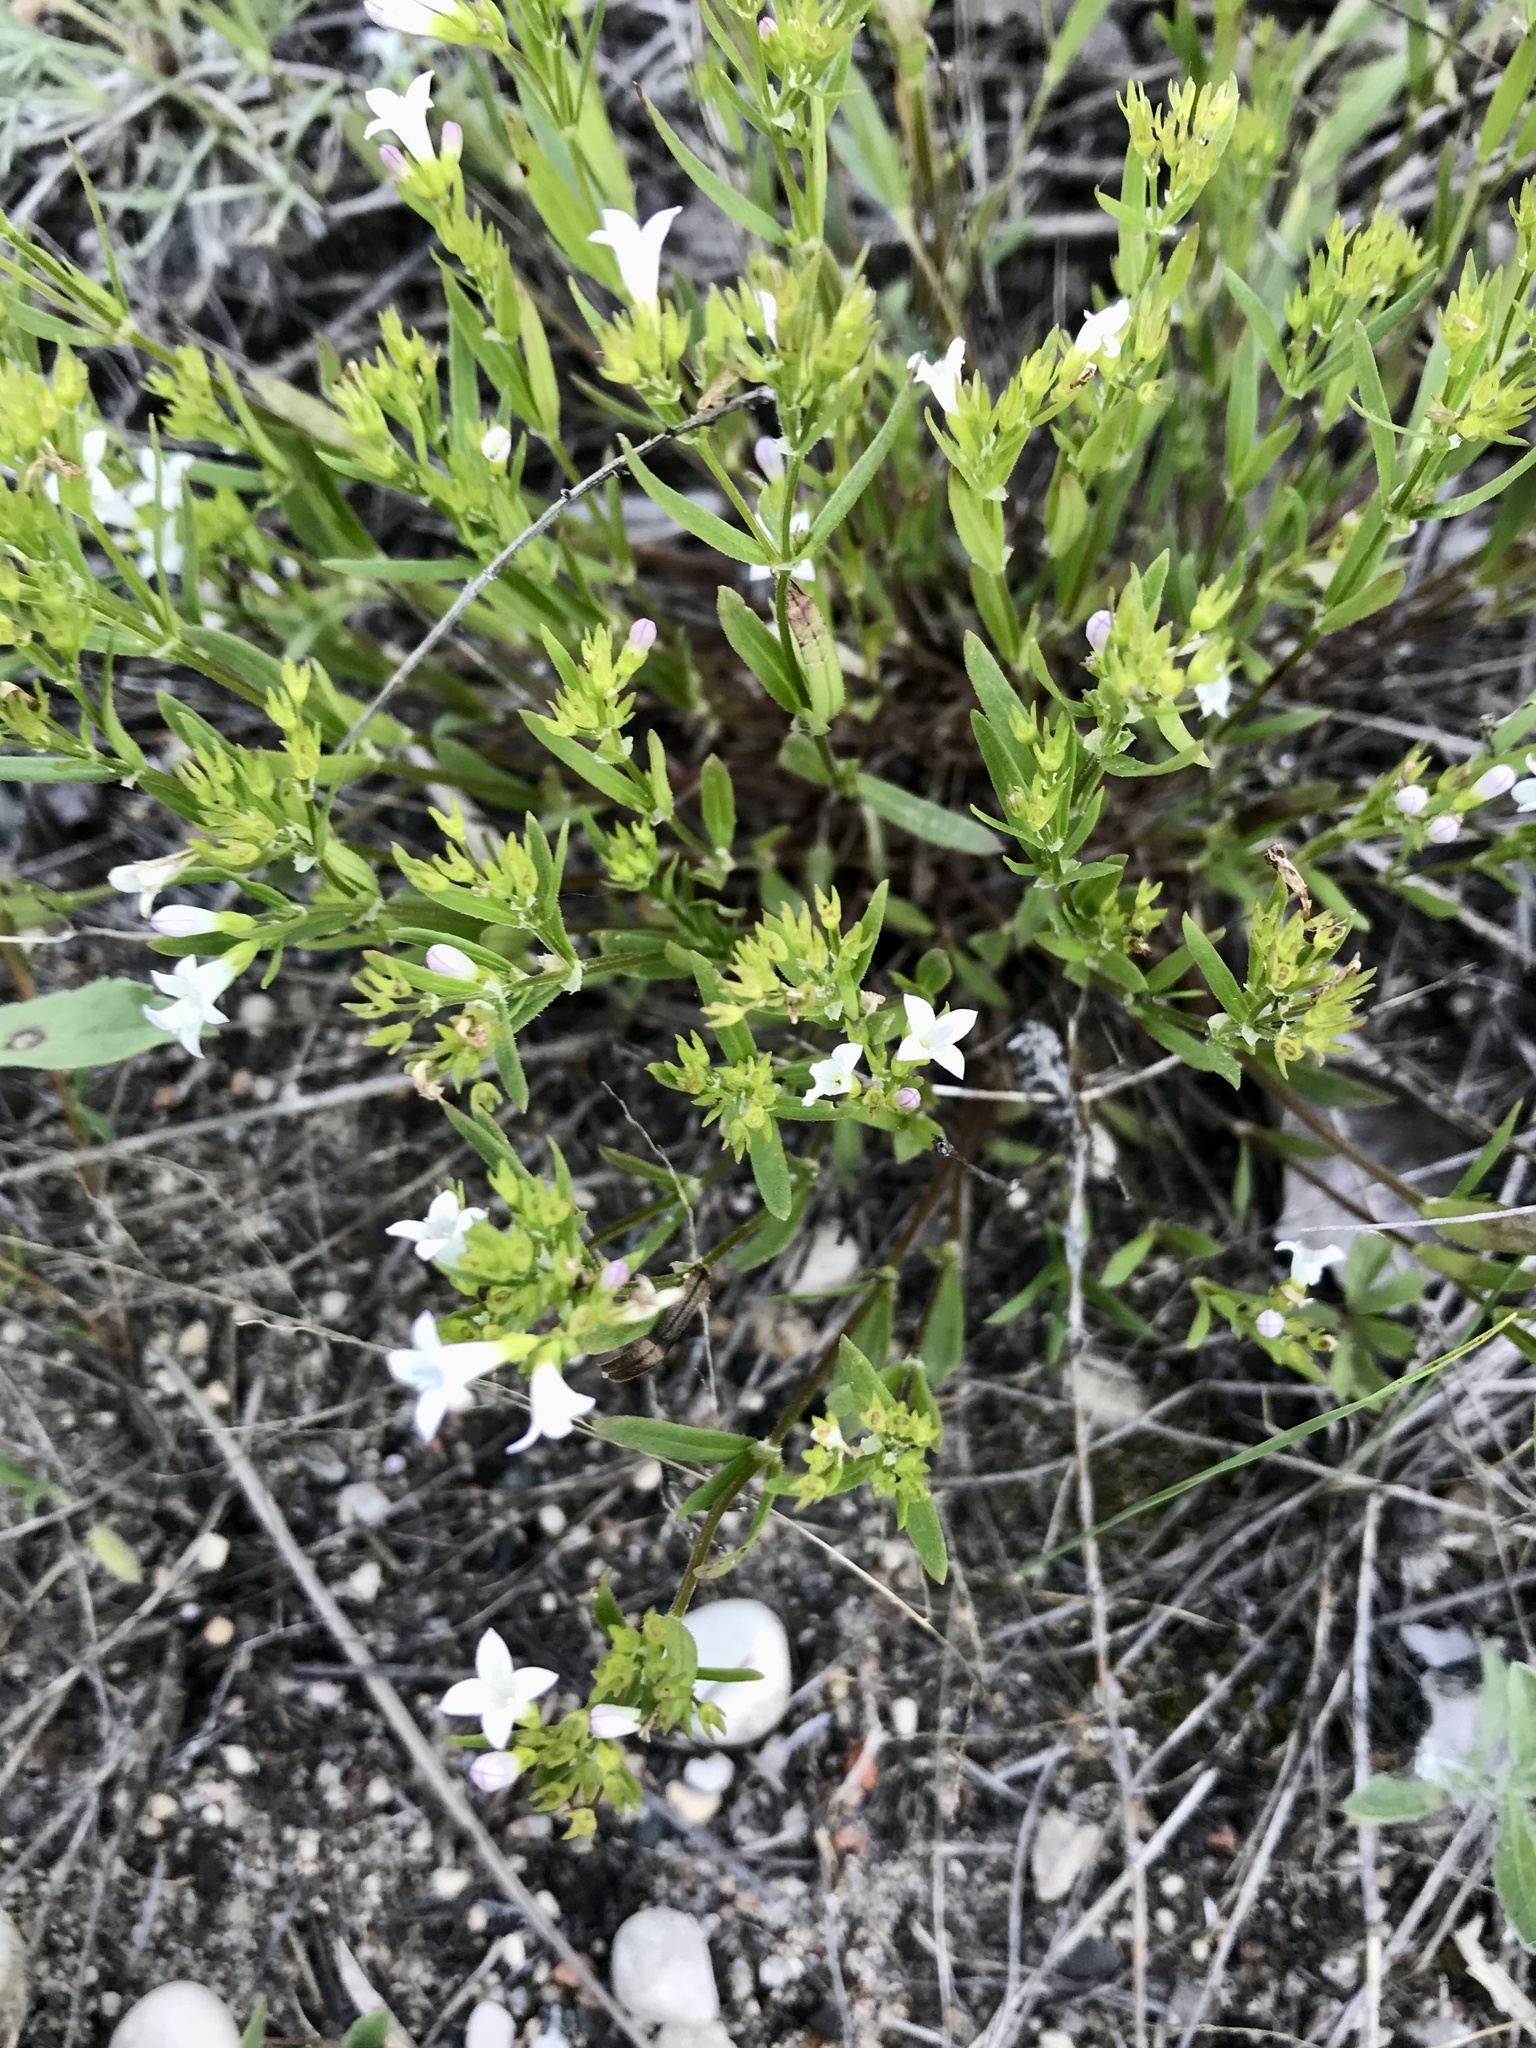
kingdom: Plantae
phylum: Tracheophyta
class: Magnoliopsida
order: Gentianales
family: Rubiaceae
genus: Houstonia
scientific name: Houstonia longifolia
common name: Long-leaved bluets
